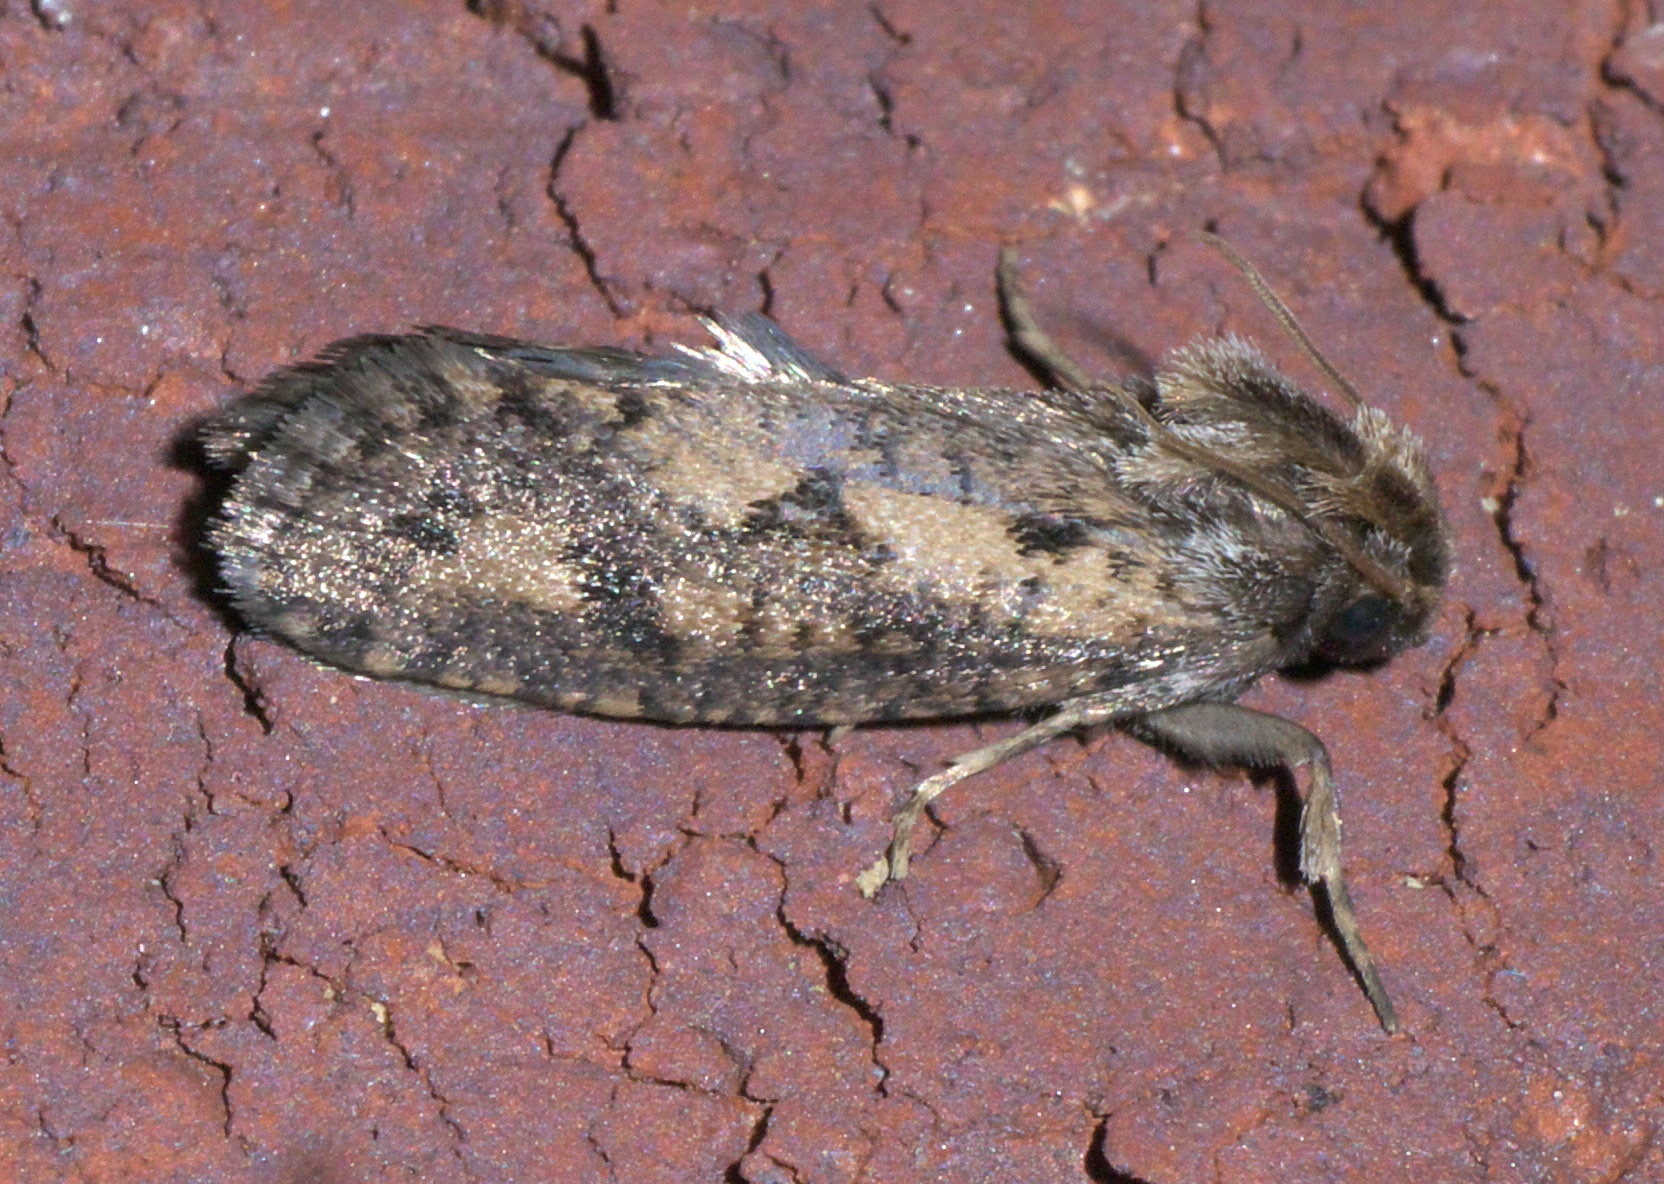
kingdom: Animalia
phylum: Arthropoda
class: Insecta
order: Lepidoptera
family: Tineidae
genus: Acrolophus
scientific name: Acrolophus popeanella
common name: Clemens' grass tubeworm moth
